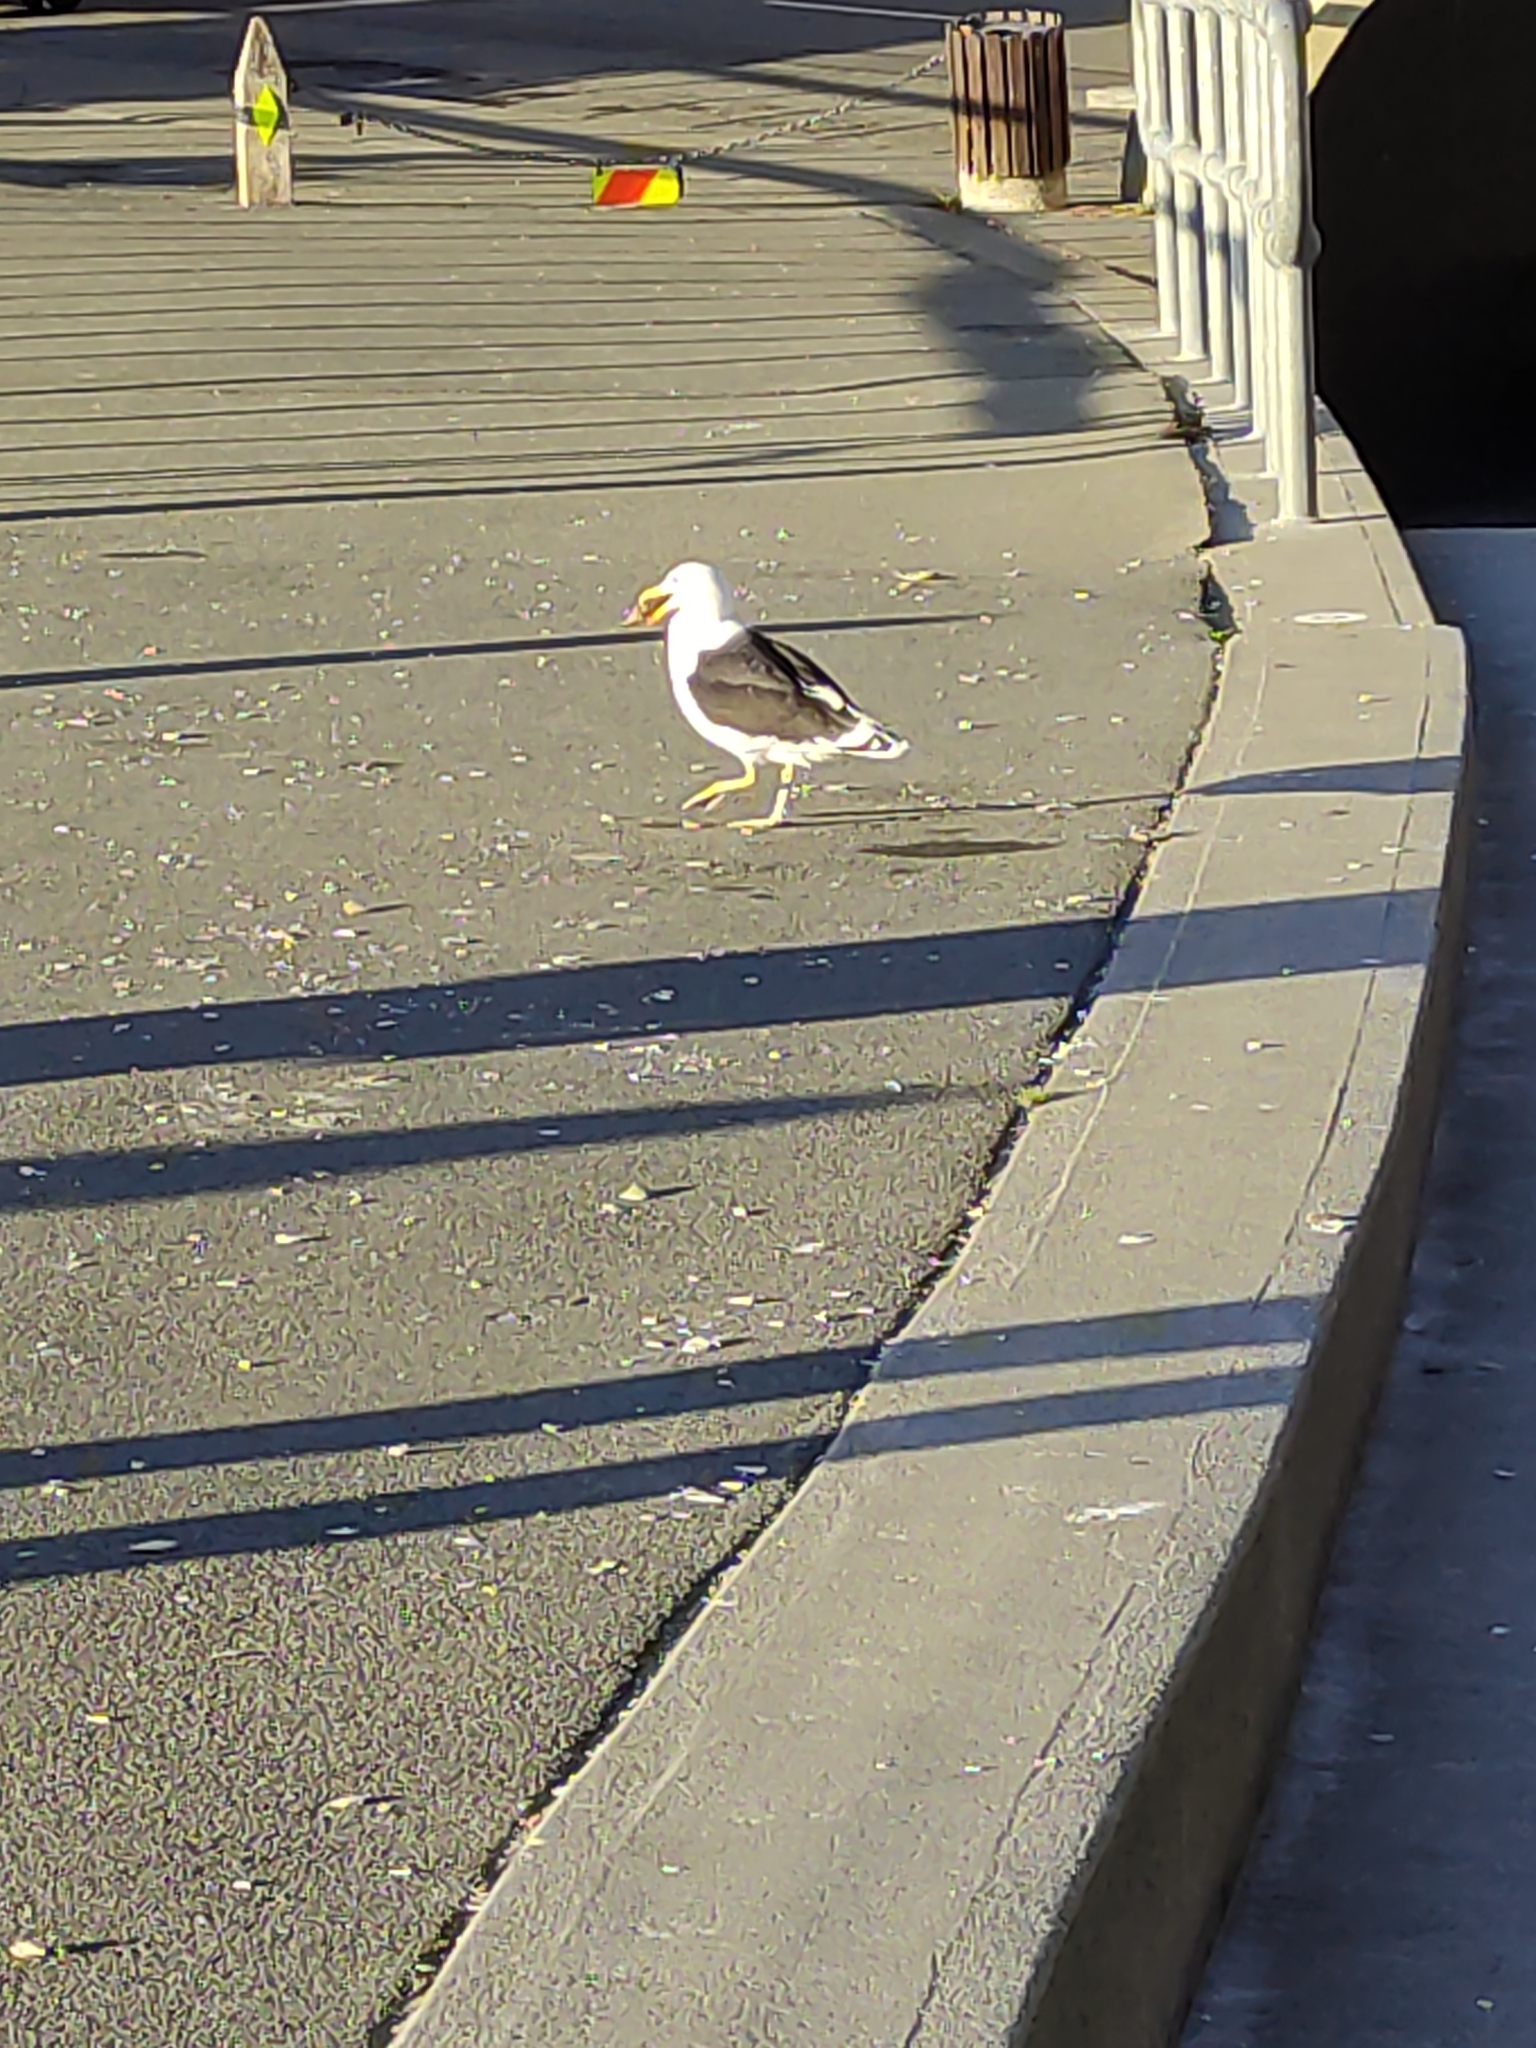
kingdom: Animalia
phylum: Chordata
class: Aves
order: Charadriiformes
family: Laridae
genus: Larus
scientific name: Larus dominicanus
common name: Kelp gull
